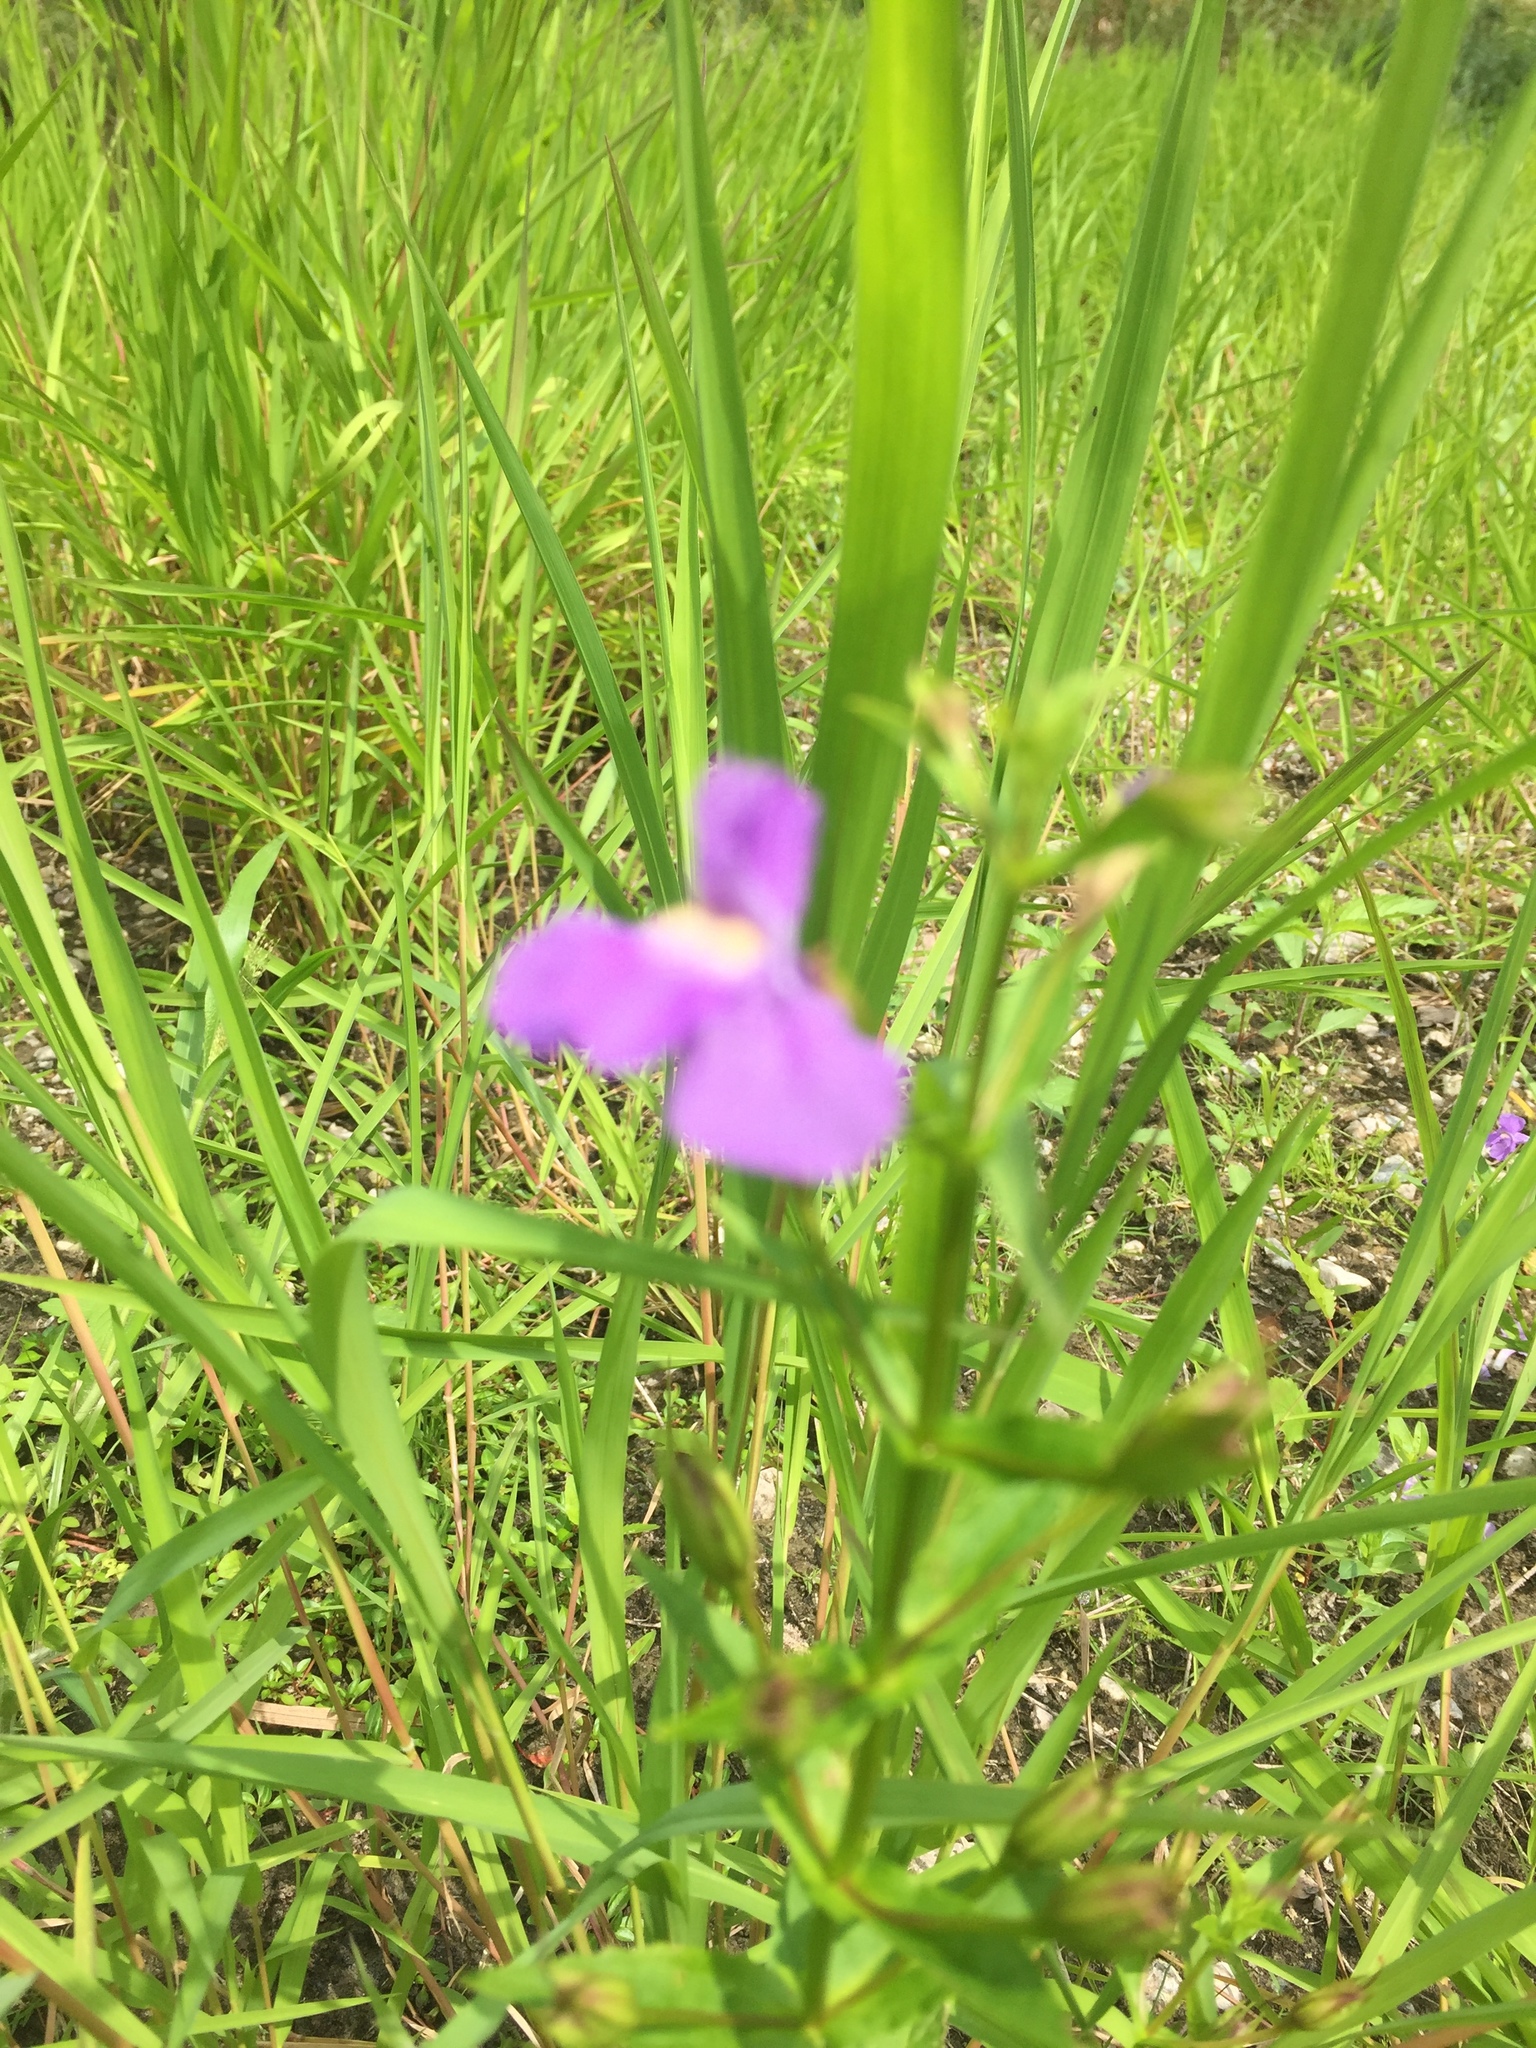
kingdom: Plantae
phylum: Tracheophyta
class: Magnoliopsida
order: Lamiales
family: Phrymaceae
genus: Mimulus
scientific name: Mimulus ringens
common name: Allegheny monkeyflower
